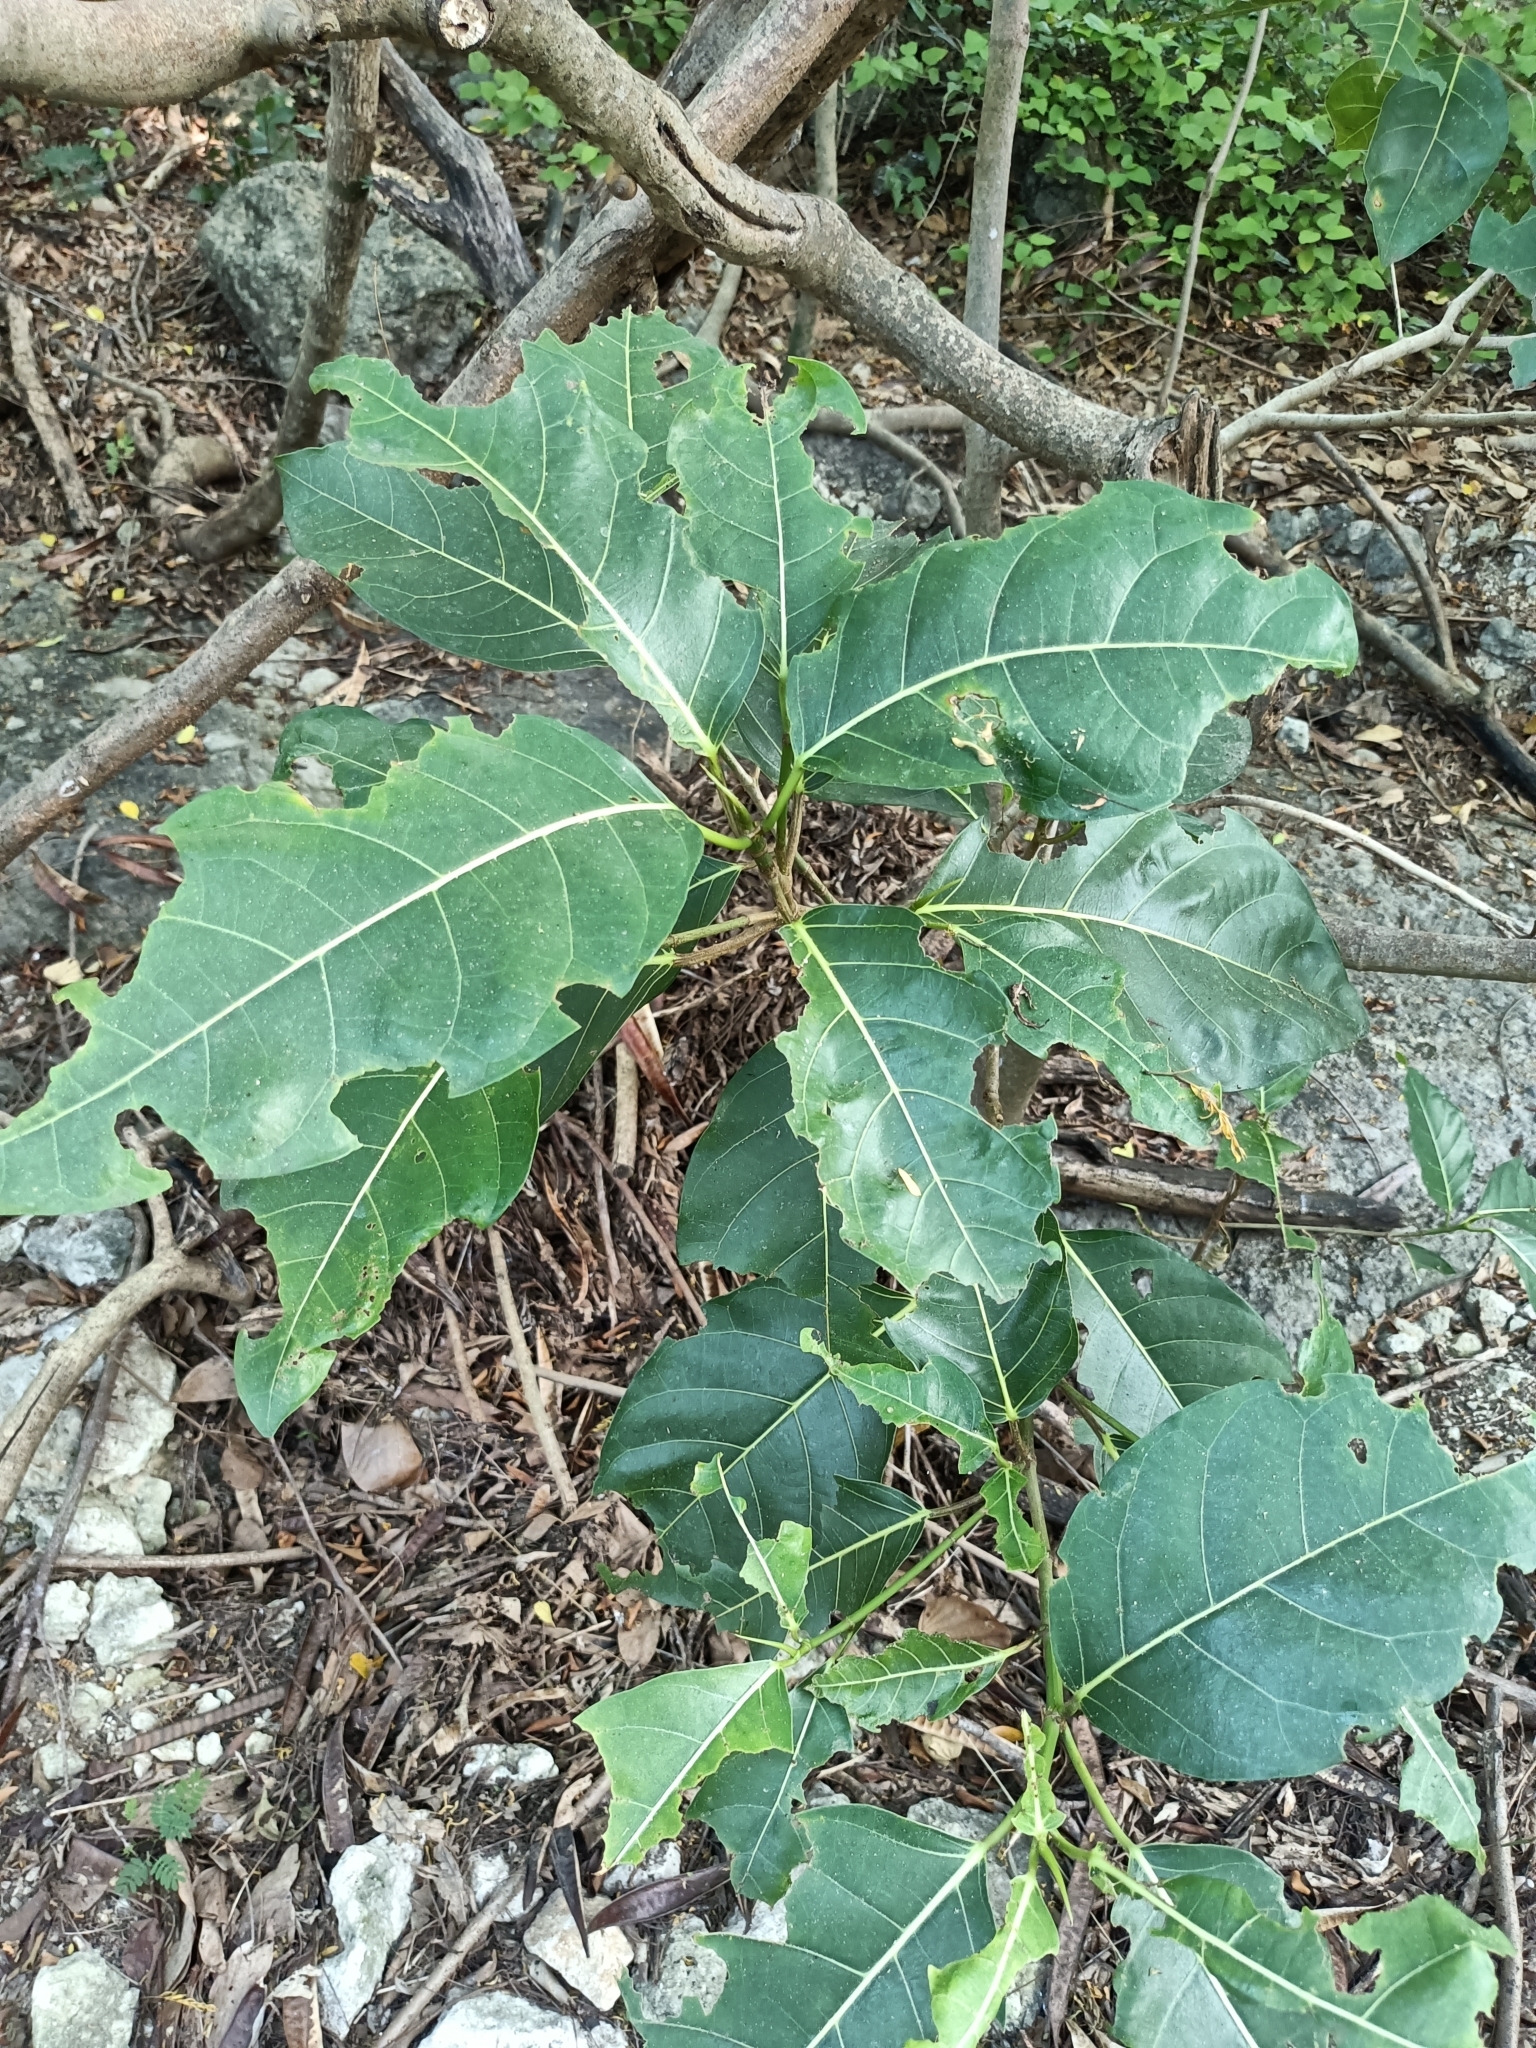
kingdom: Plantae
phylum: Tracheophyta
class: Magnoliopsida
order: Rosales
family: Moraceae
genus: Ficus
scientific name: Ficus septica
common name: Septic fig
